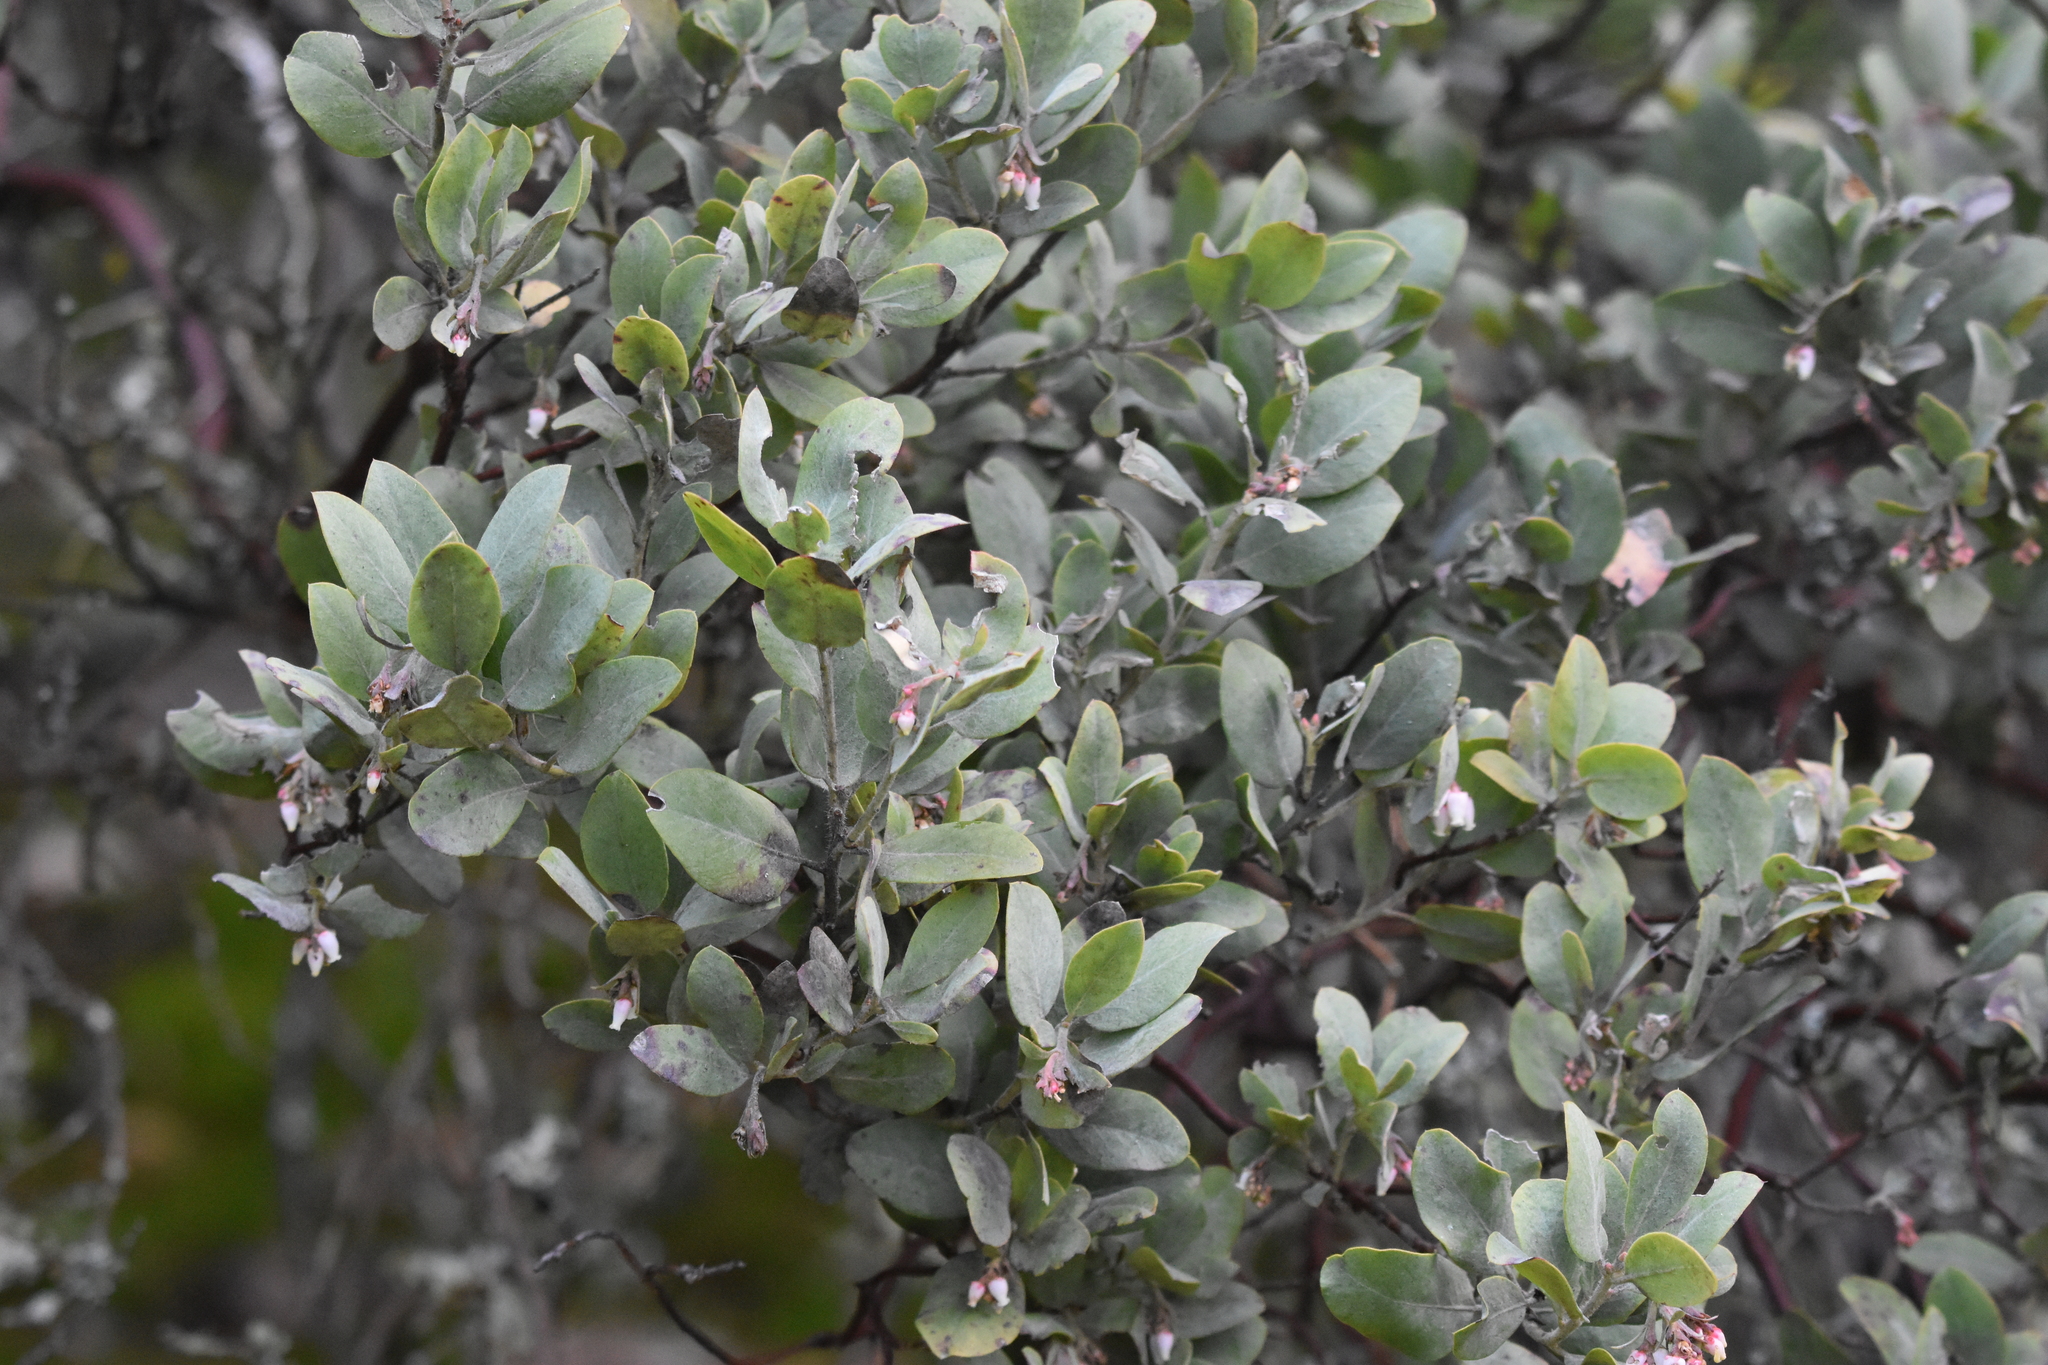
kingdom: Plantae
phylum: Tracheophyta
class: Magnoliopsida
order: Ericales
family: Ericaceae
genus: Arctostaphylos
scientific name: Arctostaphylos columbiana
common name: Bristly bearberry
